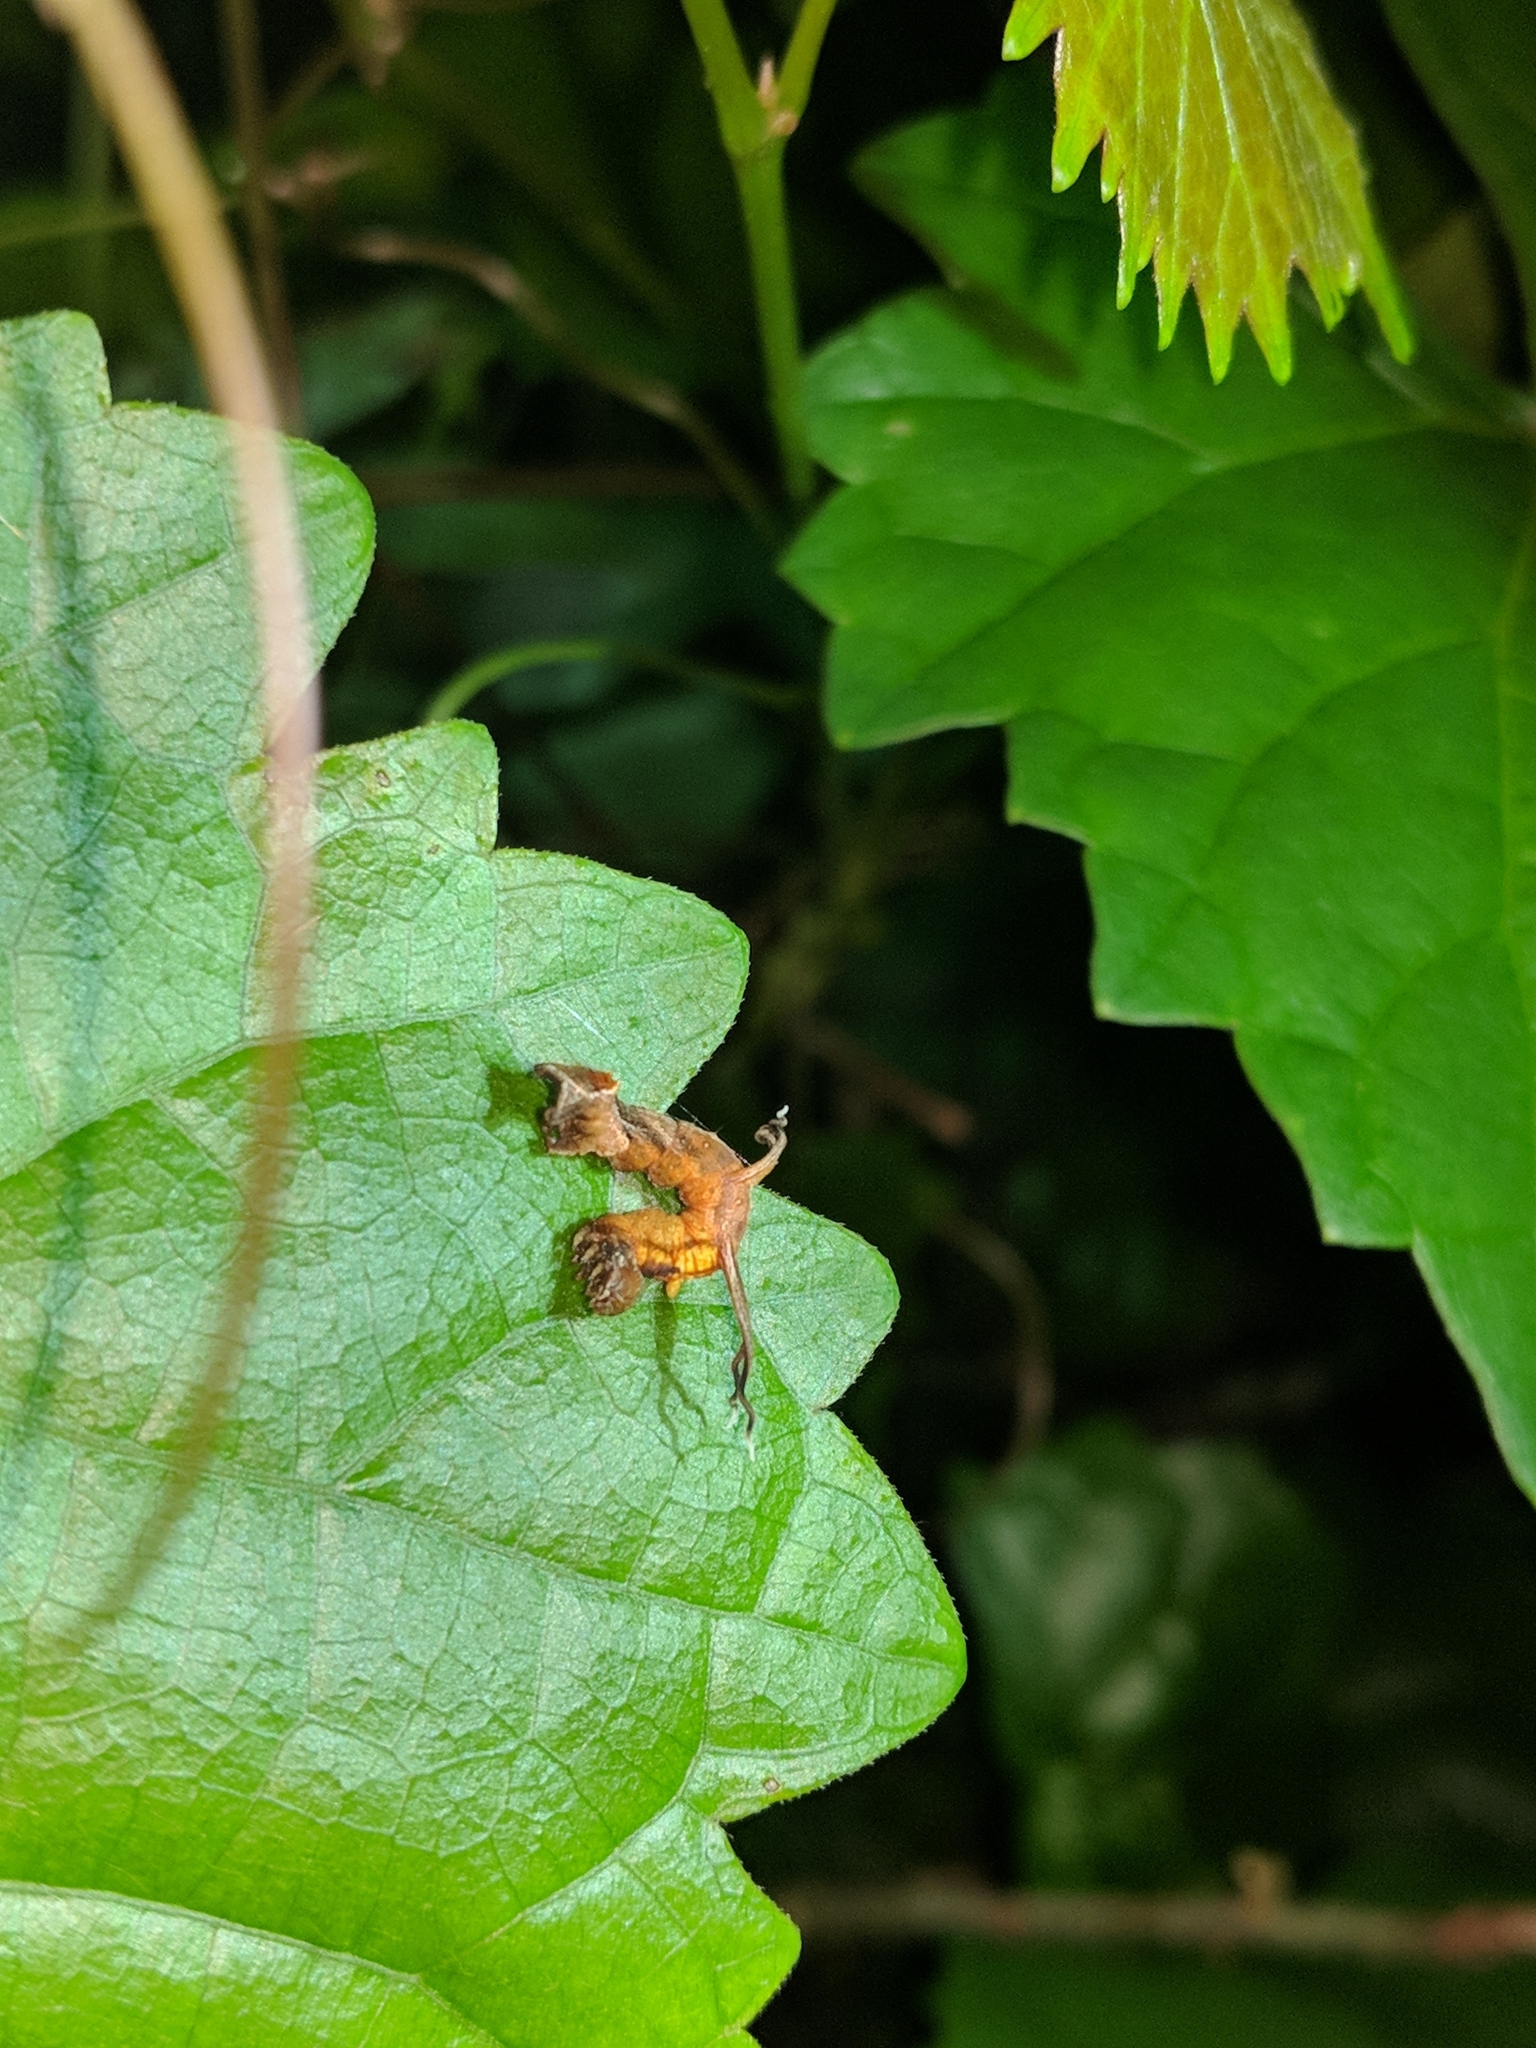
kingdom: Animalia
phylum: Arthropoda
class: Insecta
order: Lepidoptera
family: Geometridae
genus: Nematocampa
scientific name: Nematocampa resistaria
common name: Horned spanworm moth
